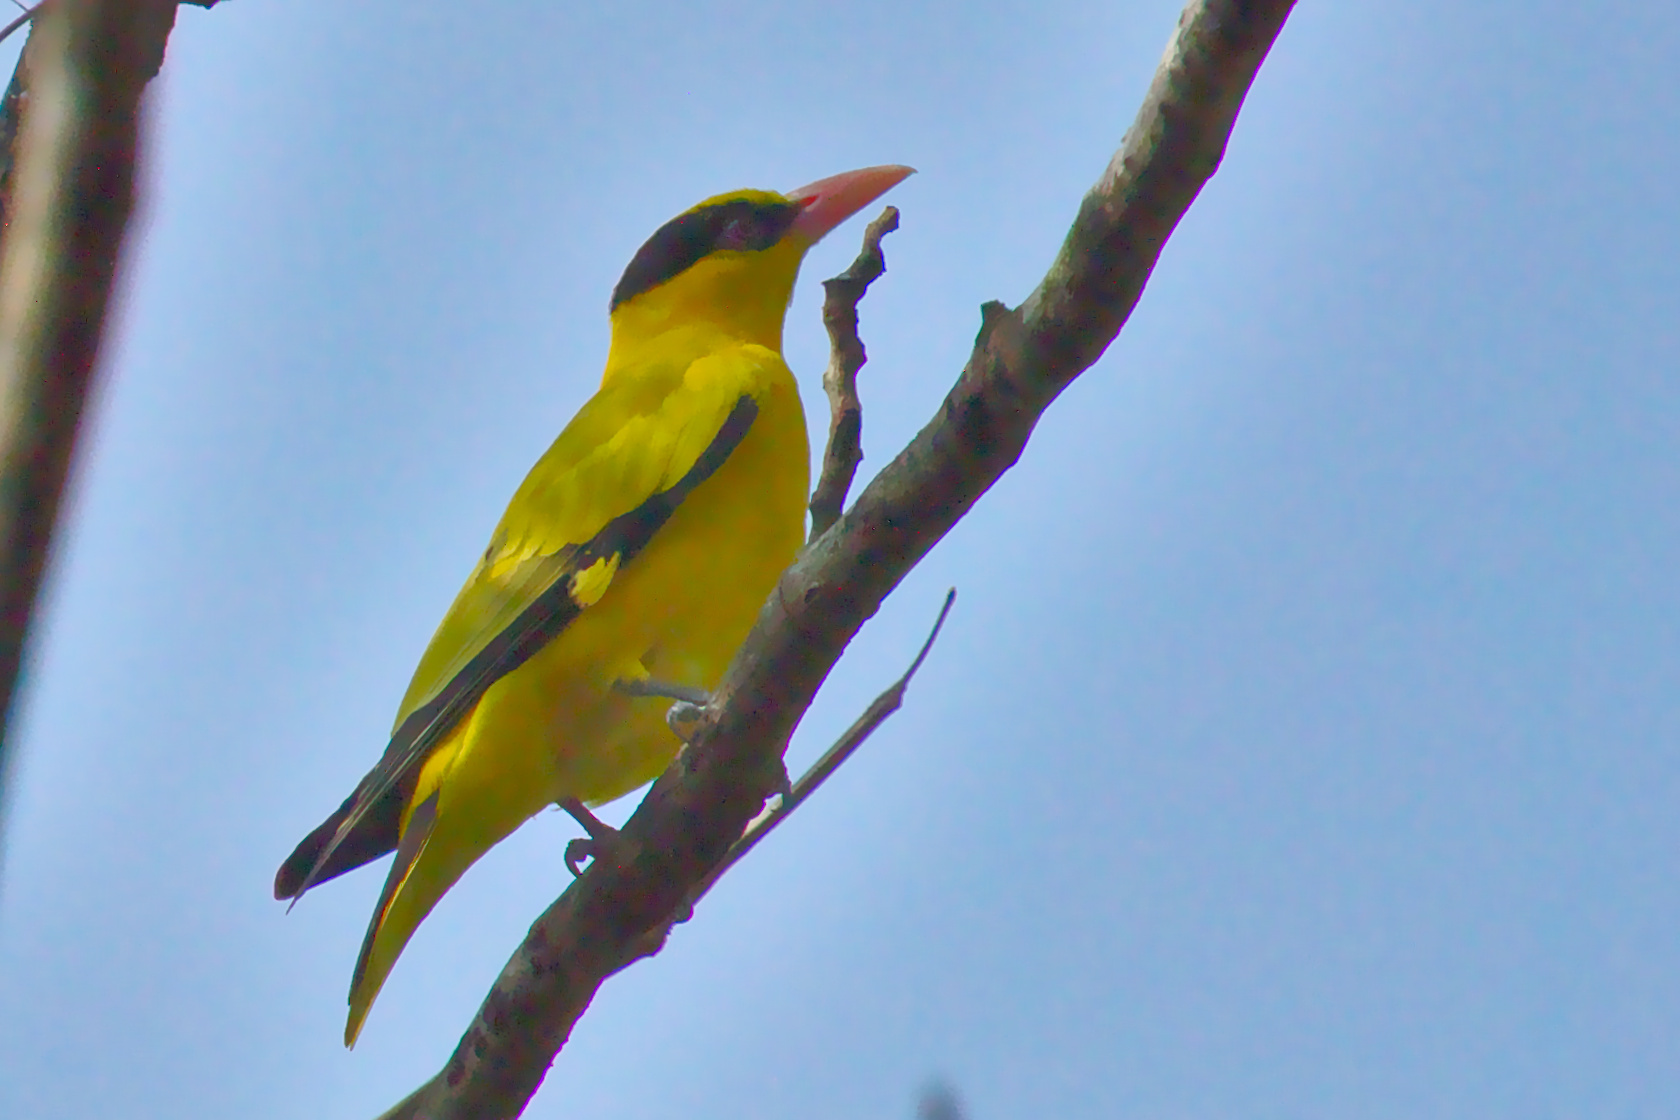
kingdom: Animalia
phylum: Chordata
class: Aves
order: Passeriformes
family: Oriolidae
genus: Oriolus
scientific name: Oriolus chinensis
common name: Black-naped oriole
